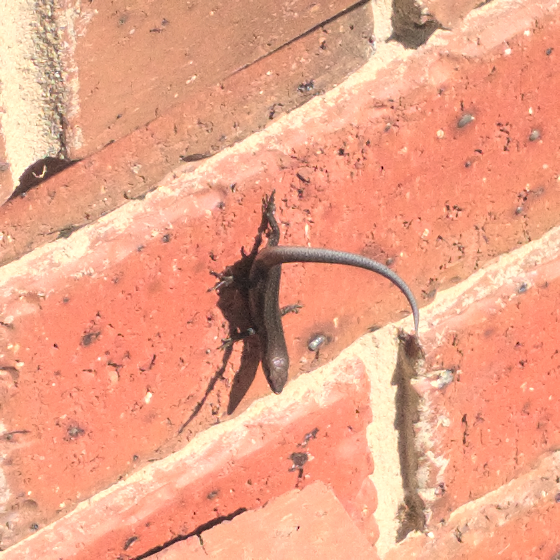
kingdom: Animalia
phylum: Chordata
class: Squamata
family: Scincidae
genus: Lampropholis
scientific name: Lampropholis guichenoti
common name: Garden skink
